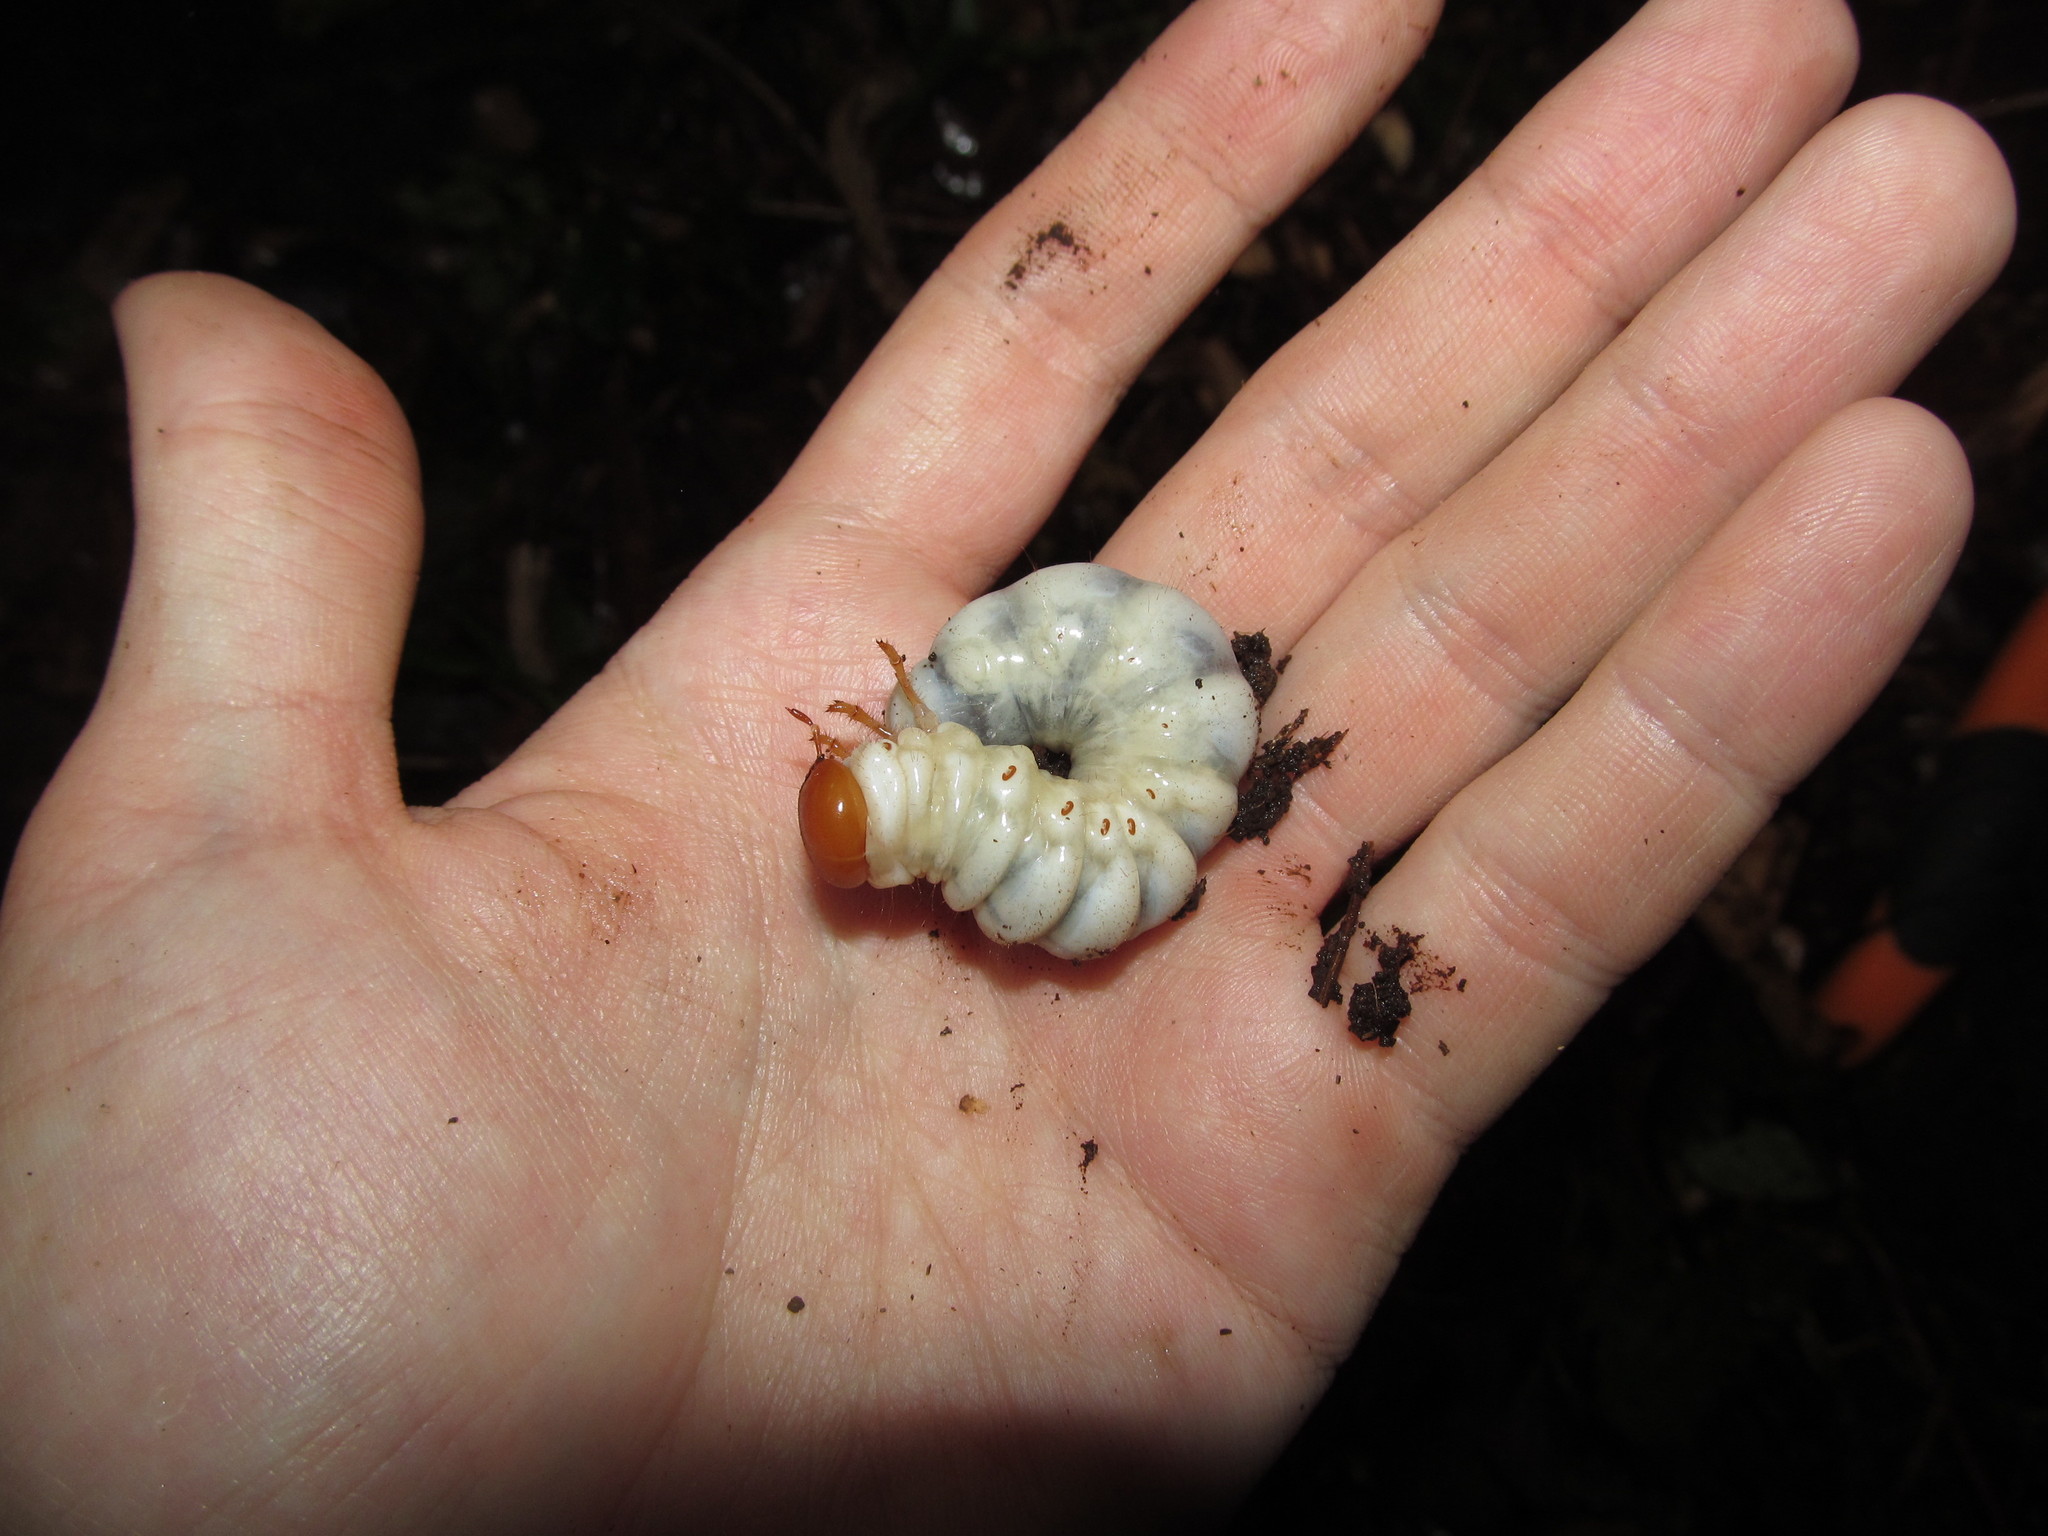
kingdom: Animalia
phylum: Arthropoda
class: Insecta
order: Coleoptera
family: Lucanidae
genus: Odontolabis
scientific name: Odontolabis cuvera
